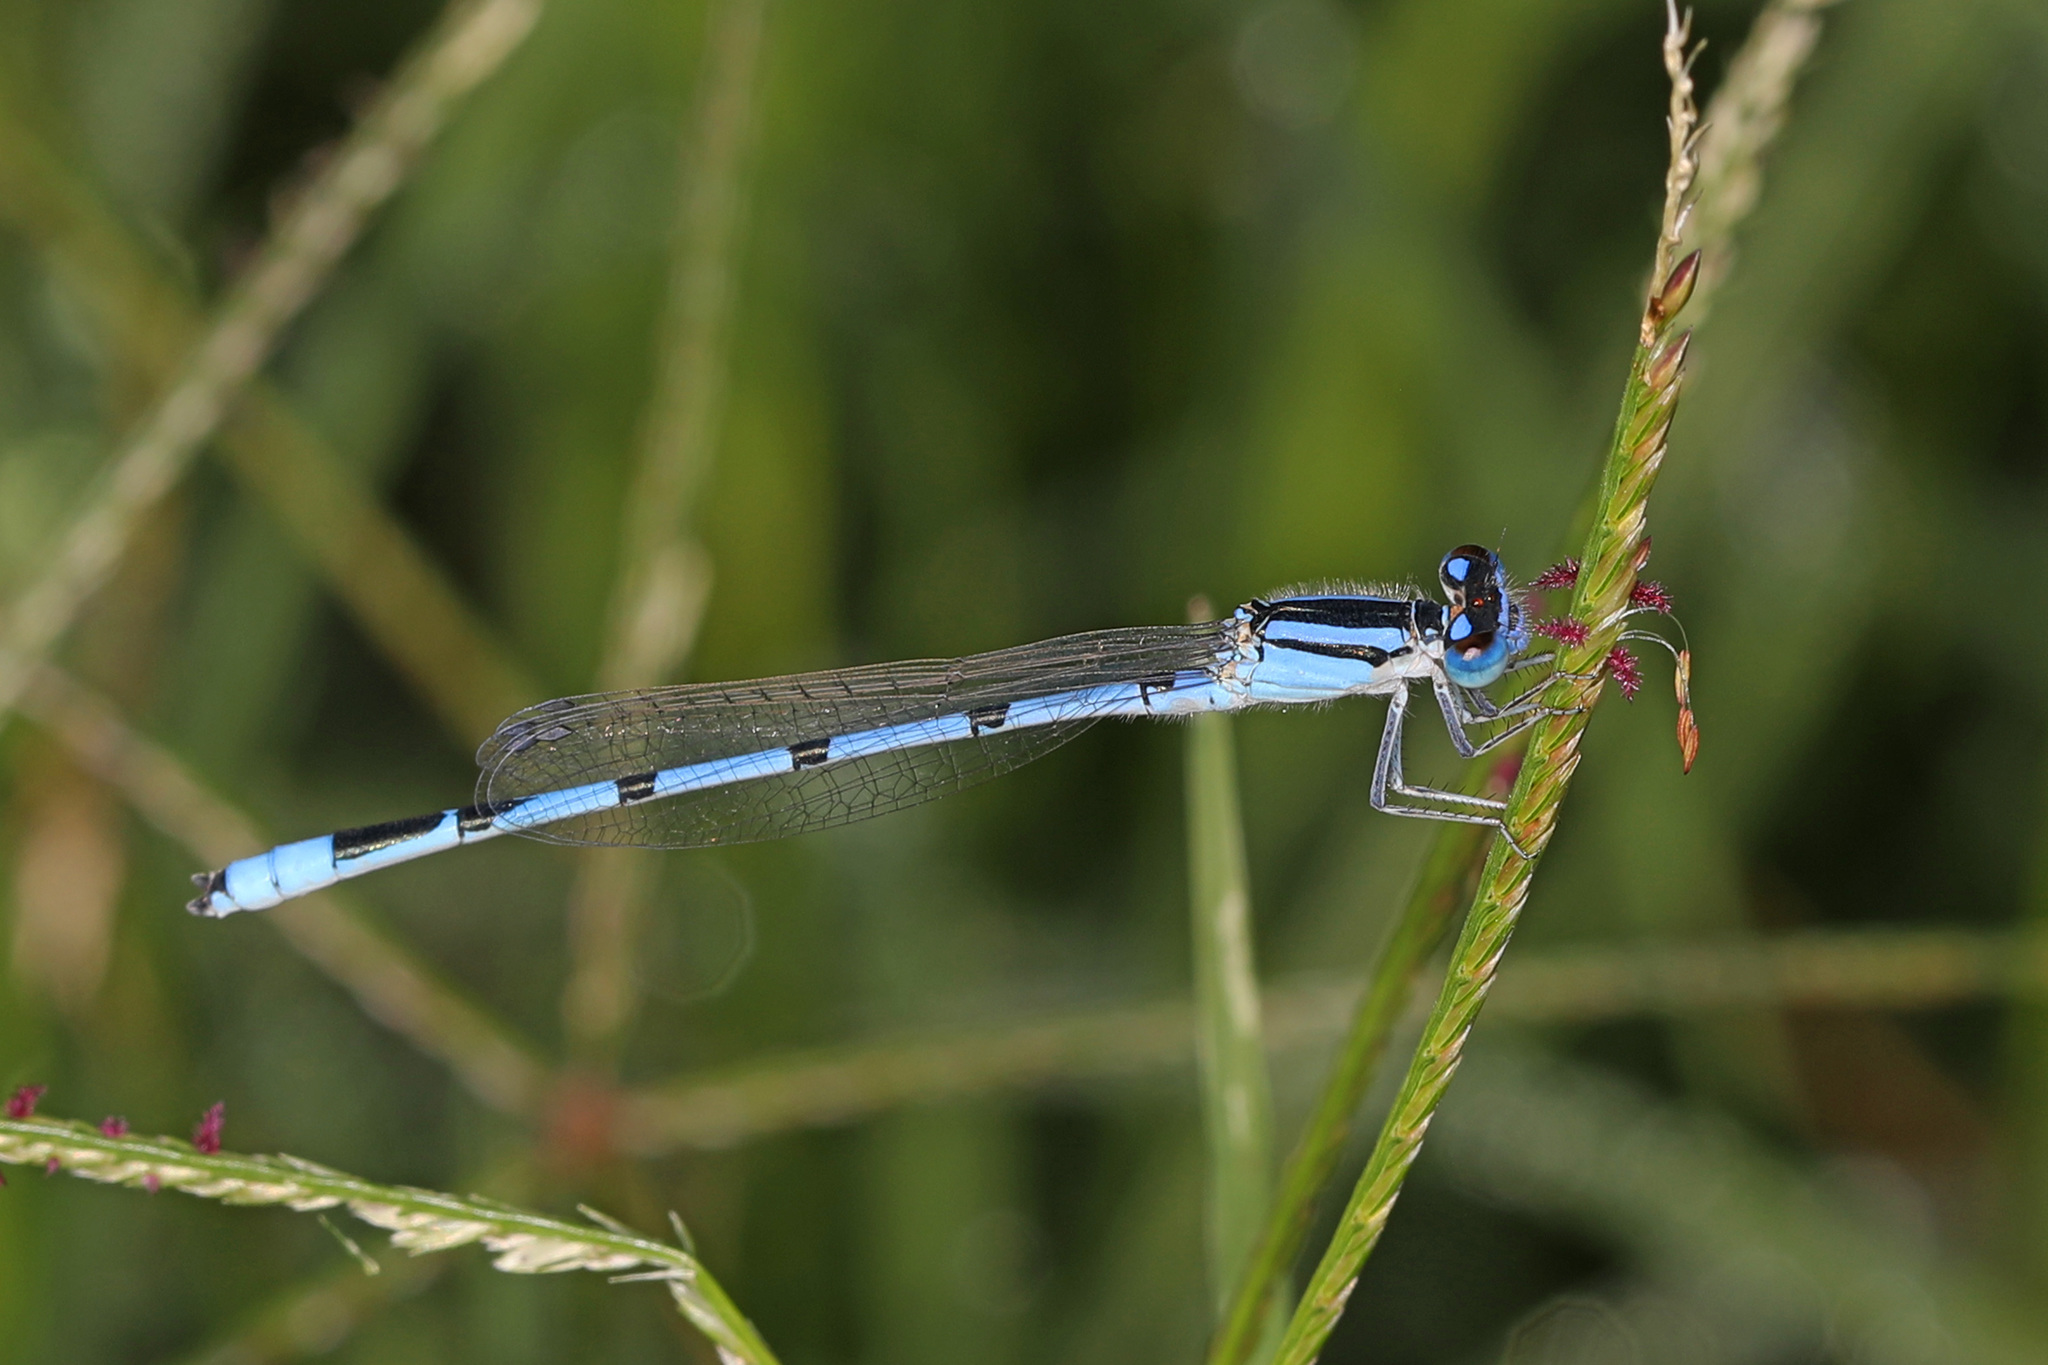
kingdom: Animalia
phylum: Arthropoda
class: Insecta
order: Odonata
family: Coenagrionidae
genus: Enallagma
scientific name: Enallagma civile
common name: Damselfly
